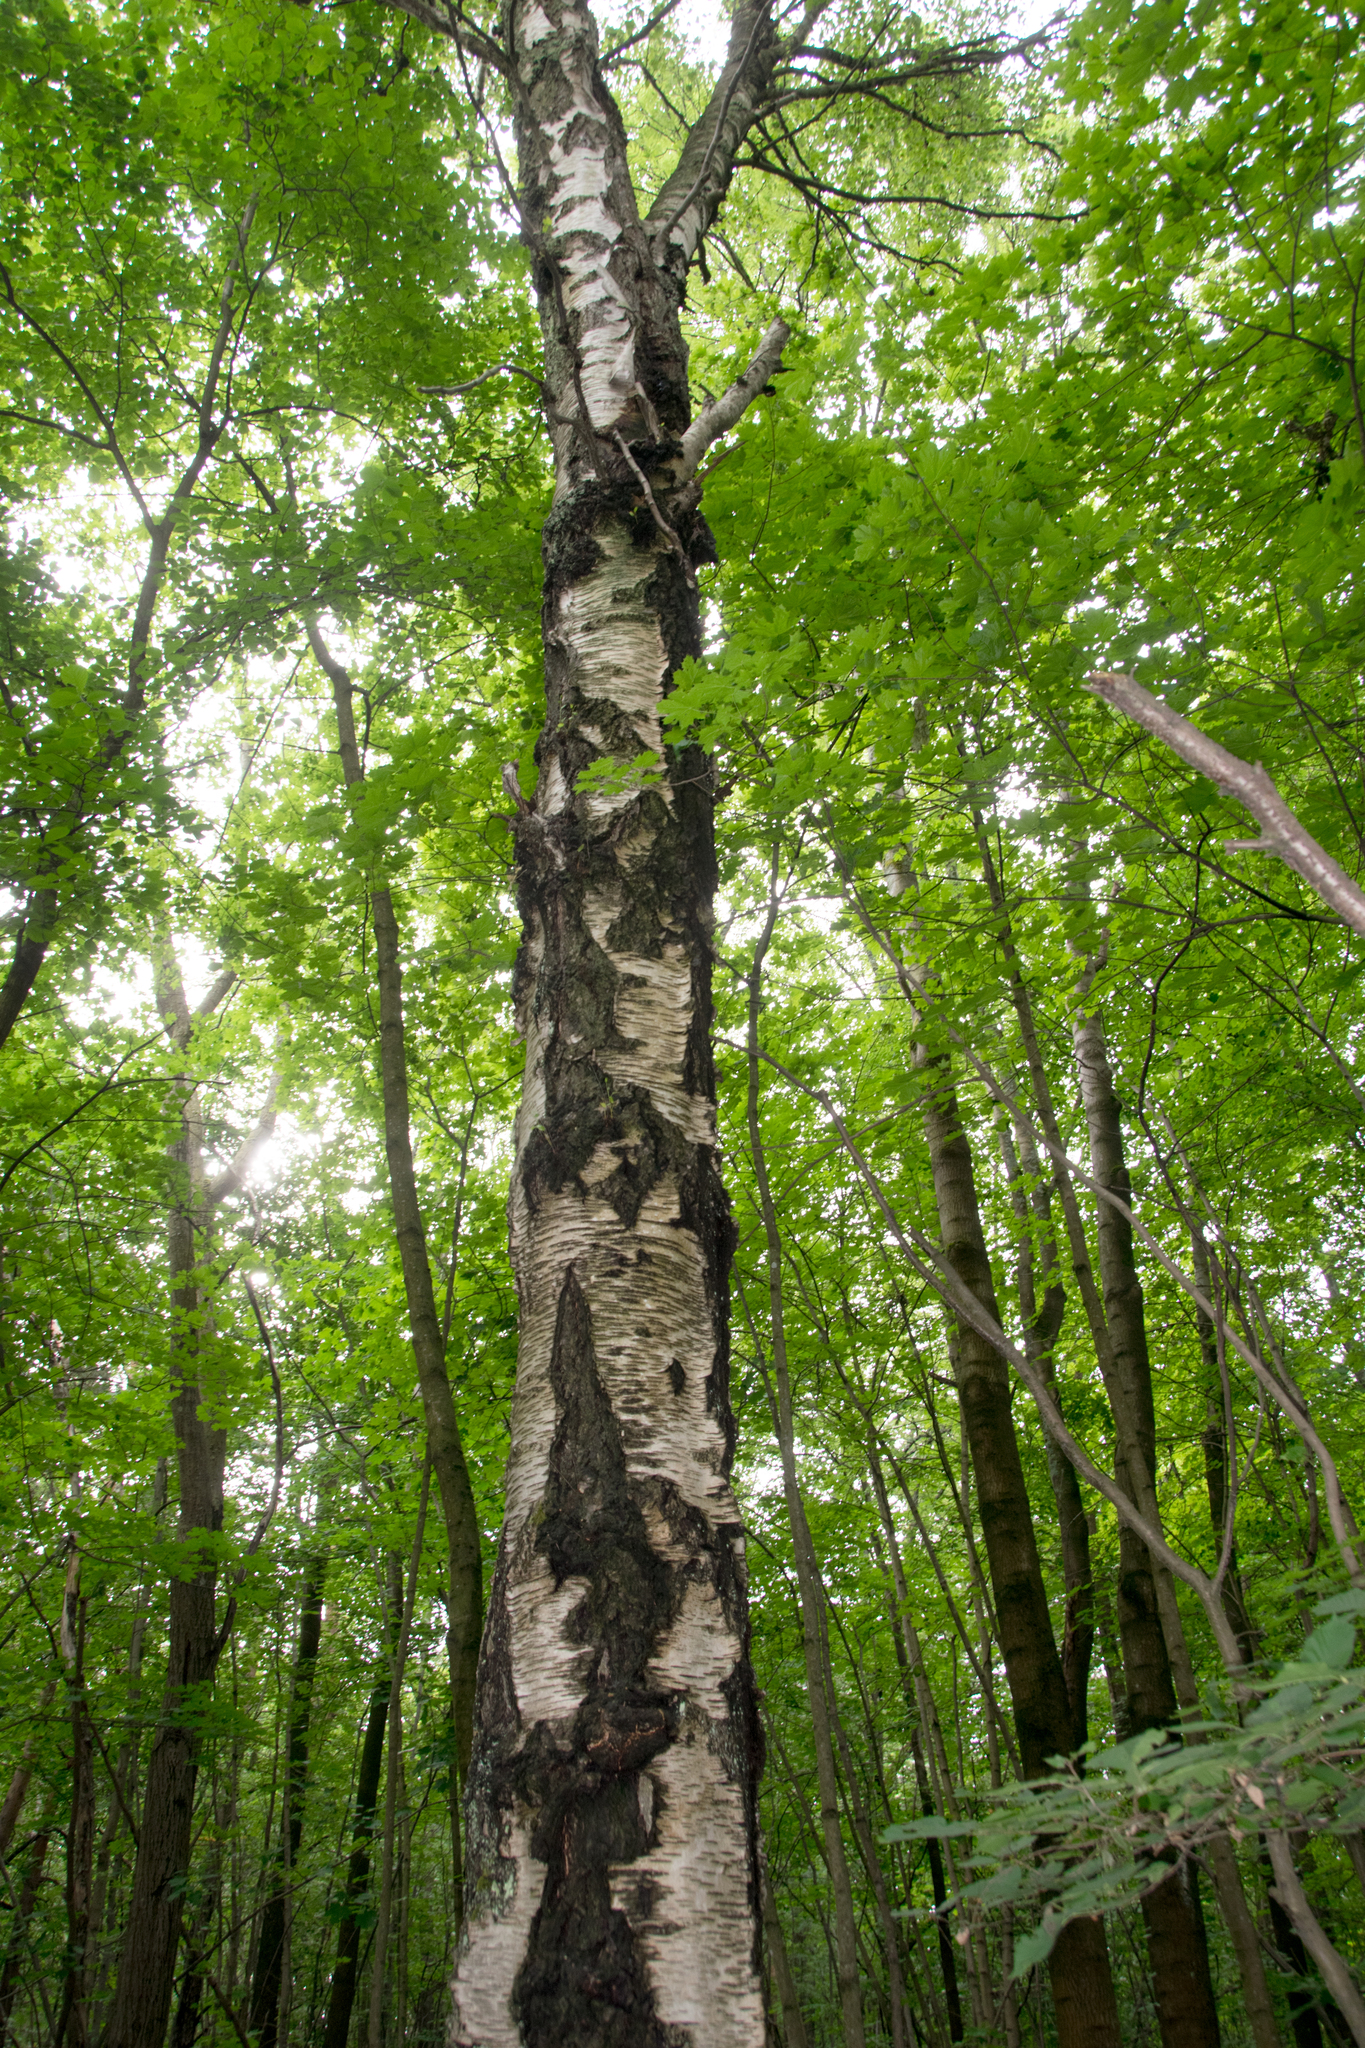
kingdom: Plantae
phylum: Tracheophyta
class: Magnoliopsida
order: Fagales
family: Betulaceae
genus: Betula
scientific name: Betula pubescens
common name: Downy birch
